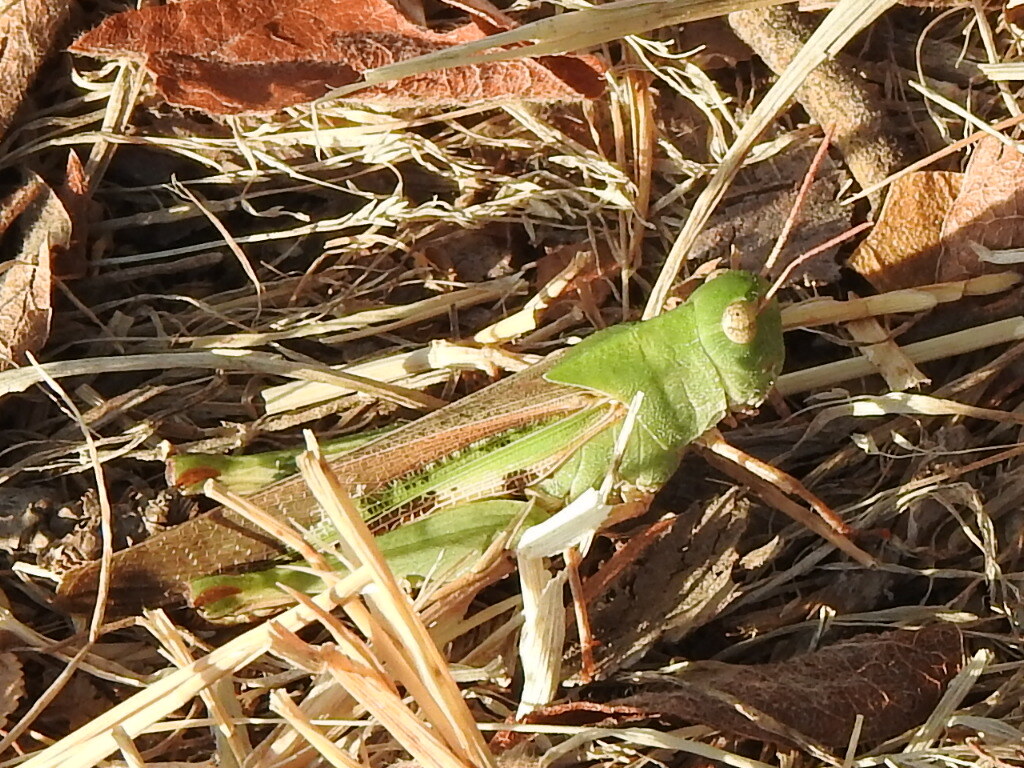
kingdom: Animalia
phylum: Arthropoda
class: Insecta
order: Orthoptera
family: Acrididae
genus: Chortophaga
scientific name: Chortophaga viridifasciata
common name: Green-striped grasshopper
